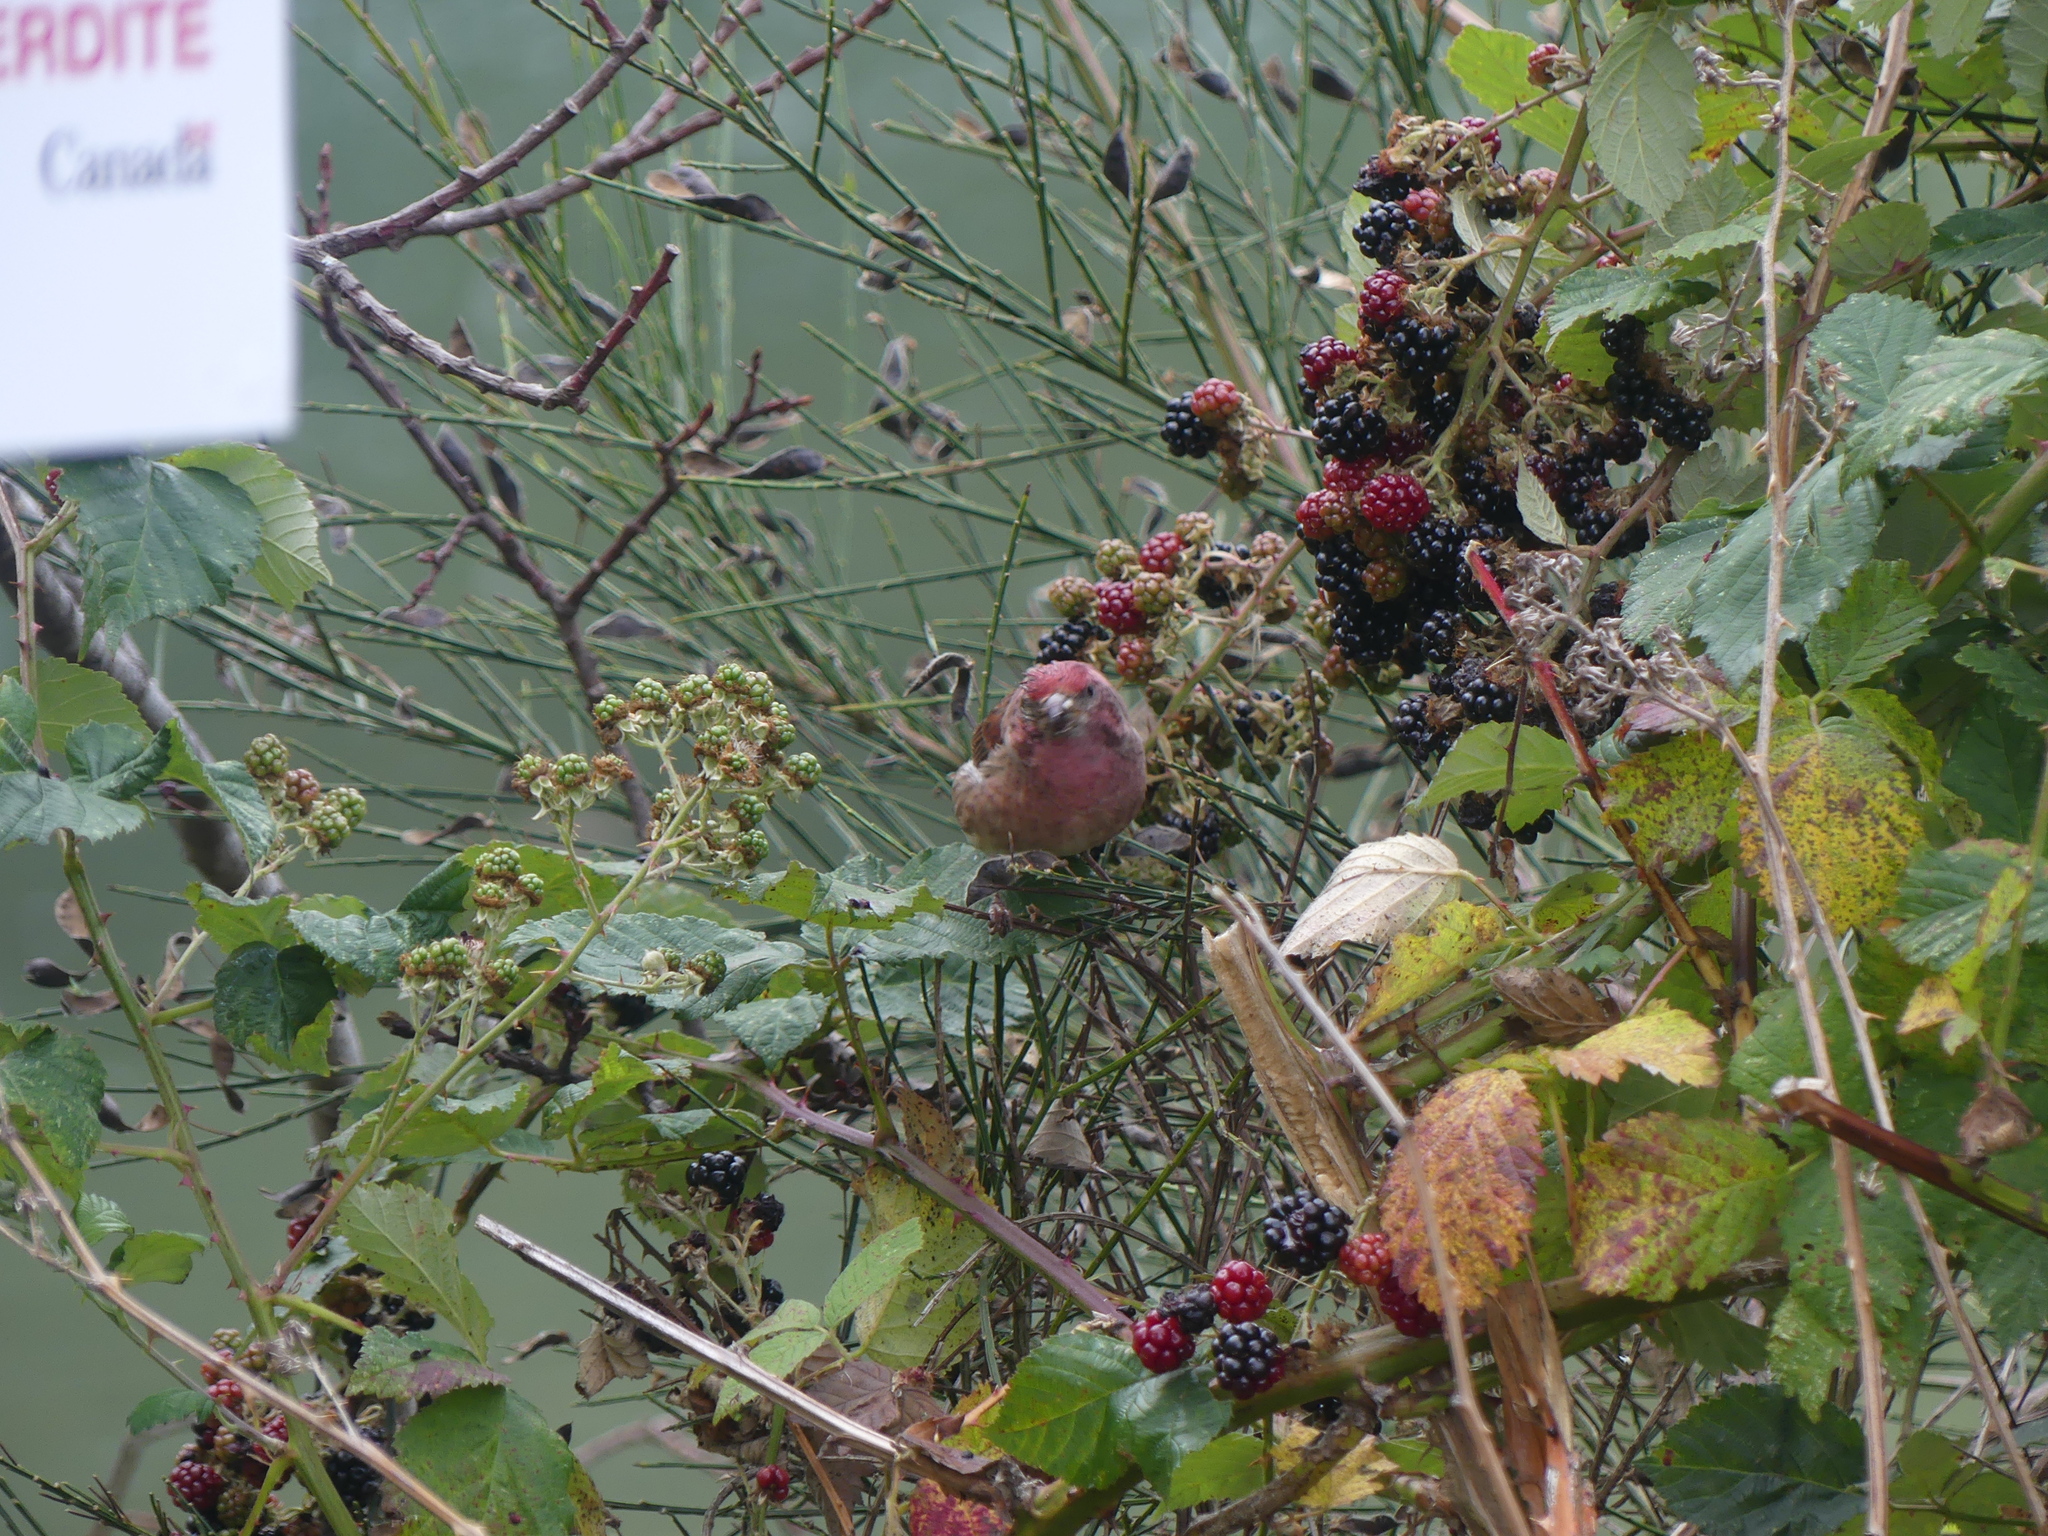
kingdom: Bacteria
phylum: Firmicutes
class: Bacilli
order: Mycoplasmatales
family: Mycoplasmataceae
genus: Mycoplasma
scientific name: Mycoplasma gallisepticum
